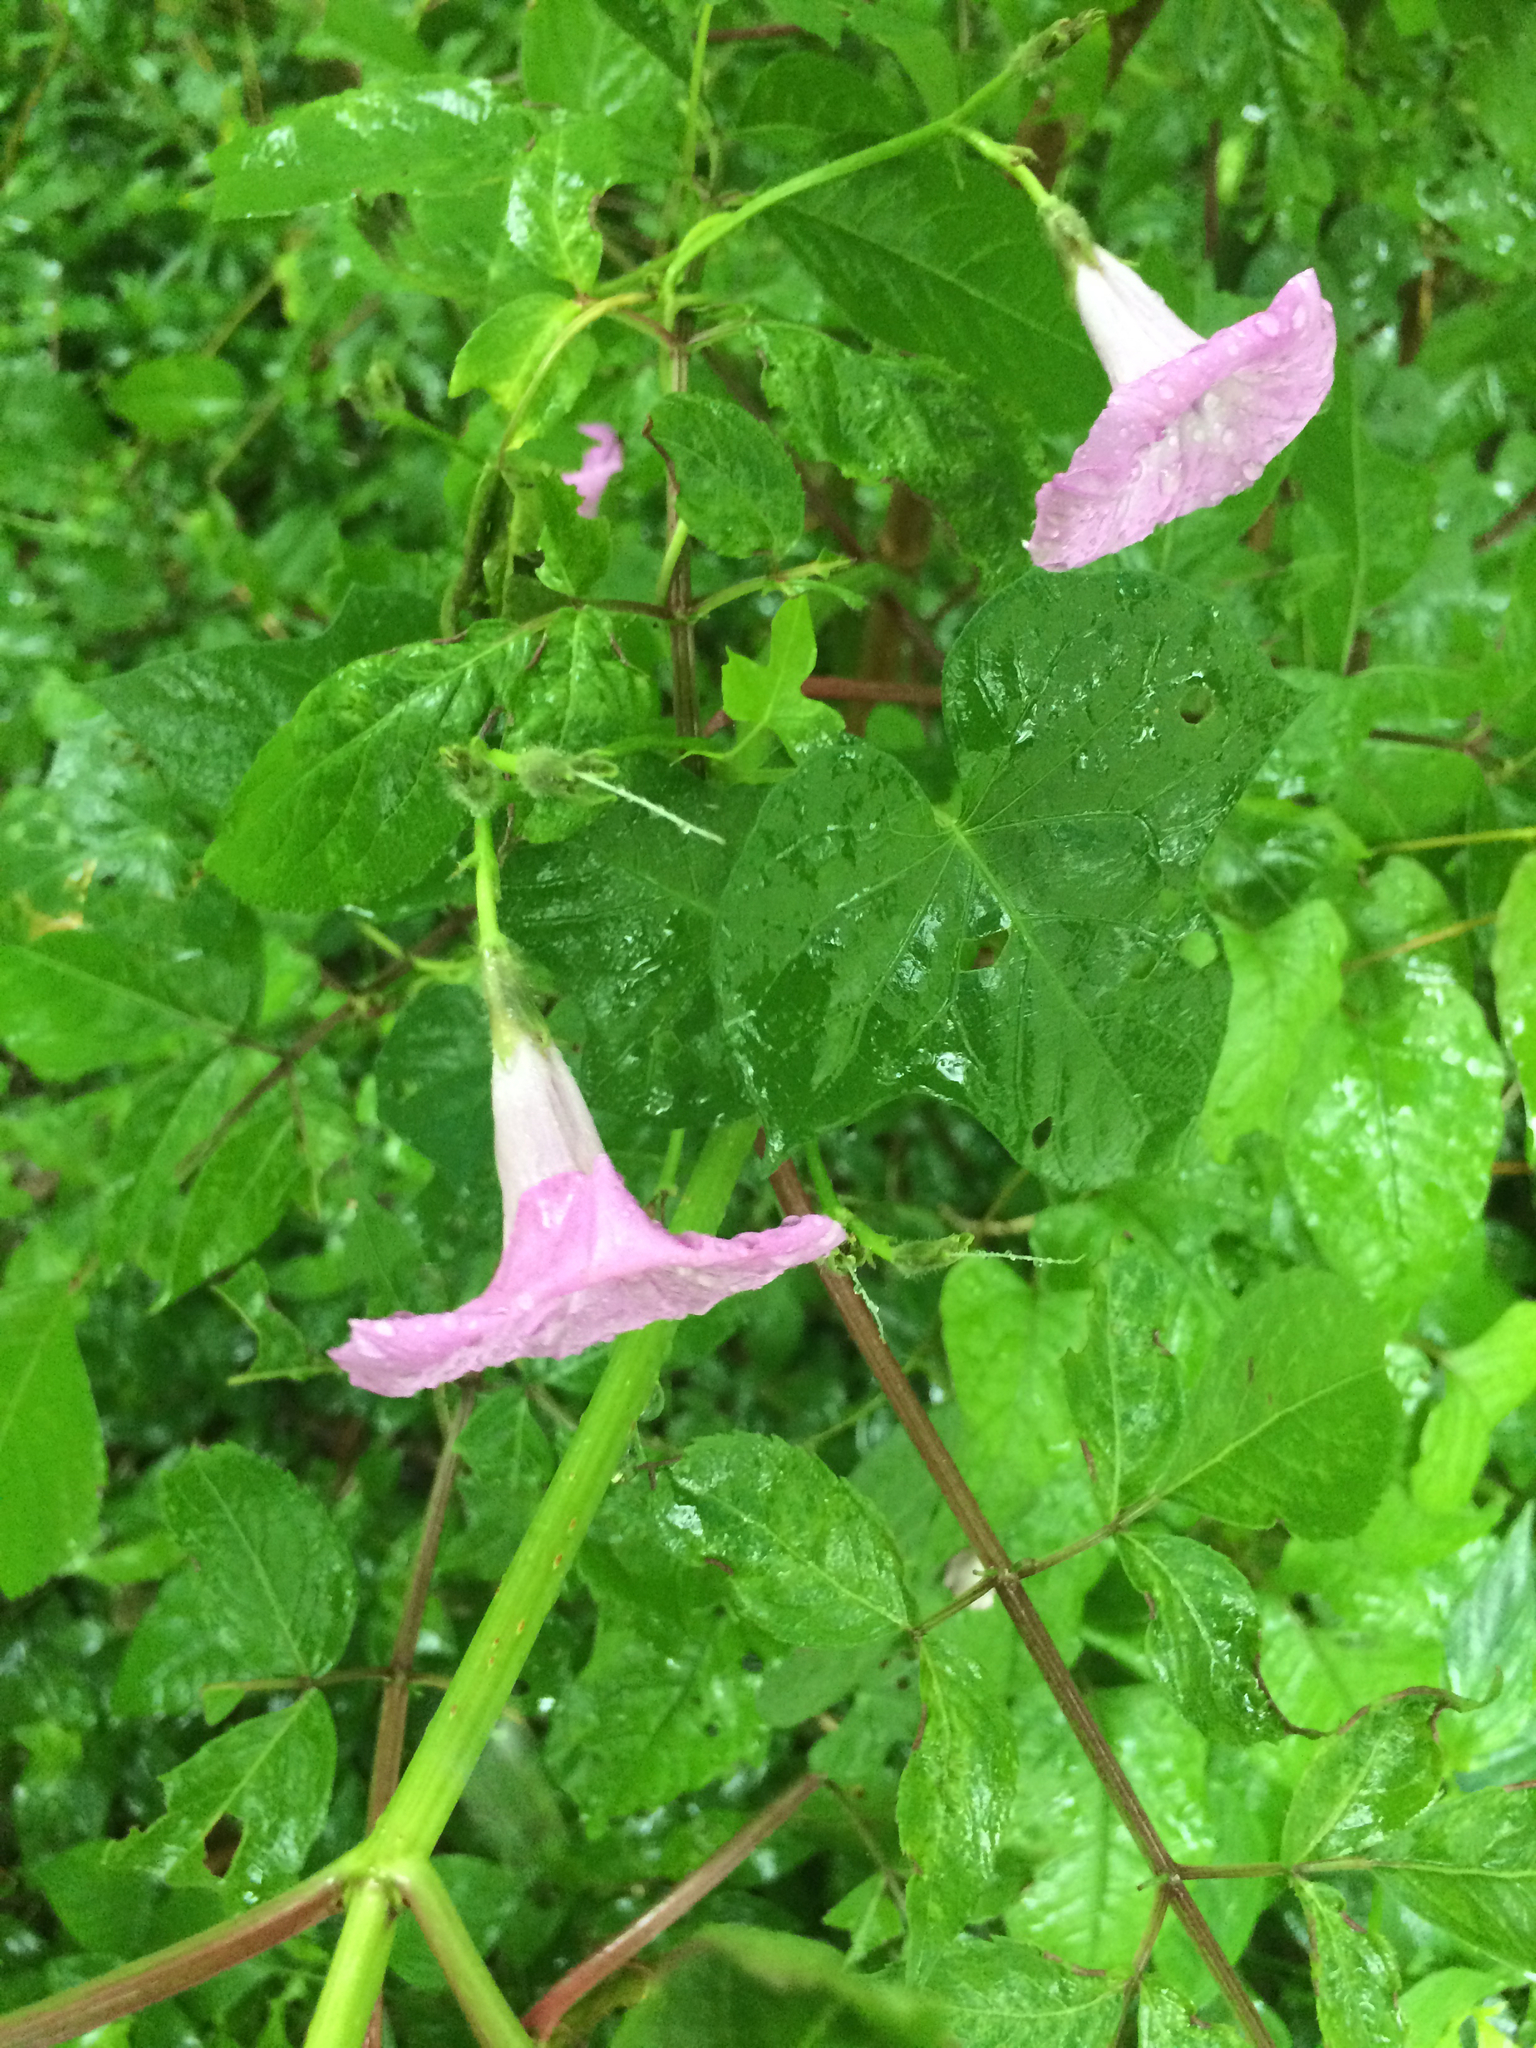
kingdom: Plantae
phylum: Tracheophyta
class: Magnoliopsida
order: Solanales
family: Convolvulaceae
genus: Ipomoea
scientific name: Ipomoea cordatotriloba
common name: Cotton morning glory
